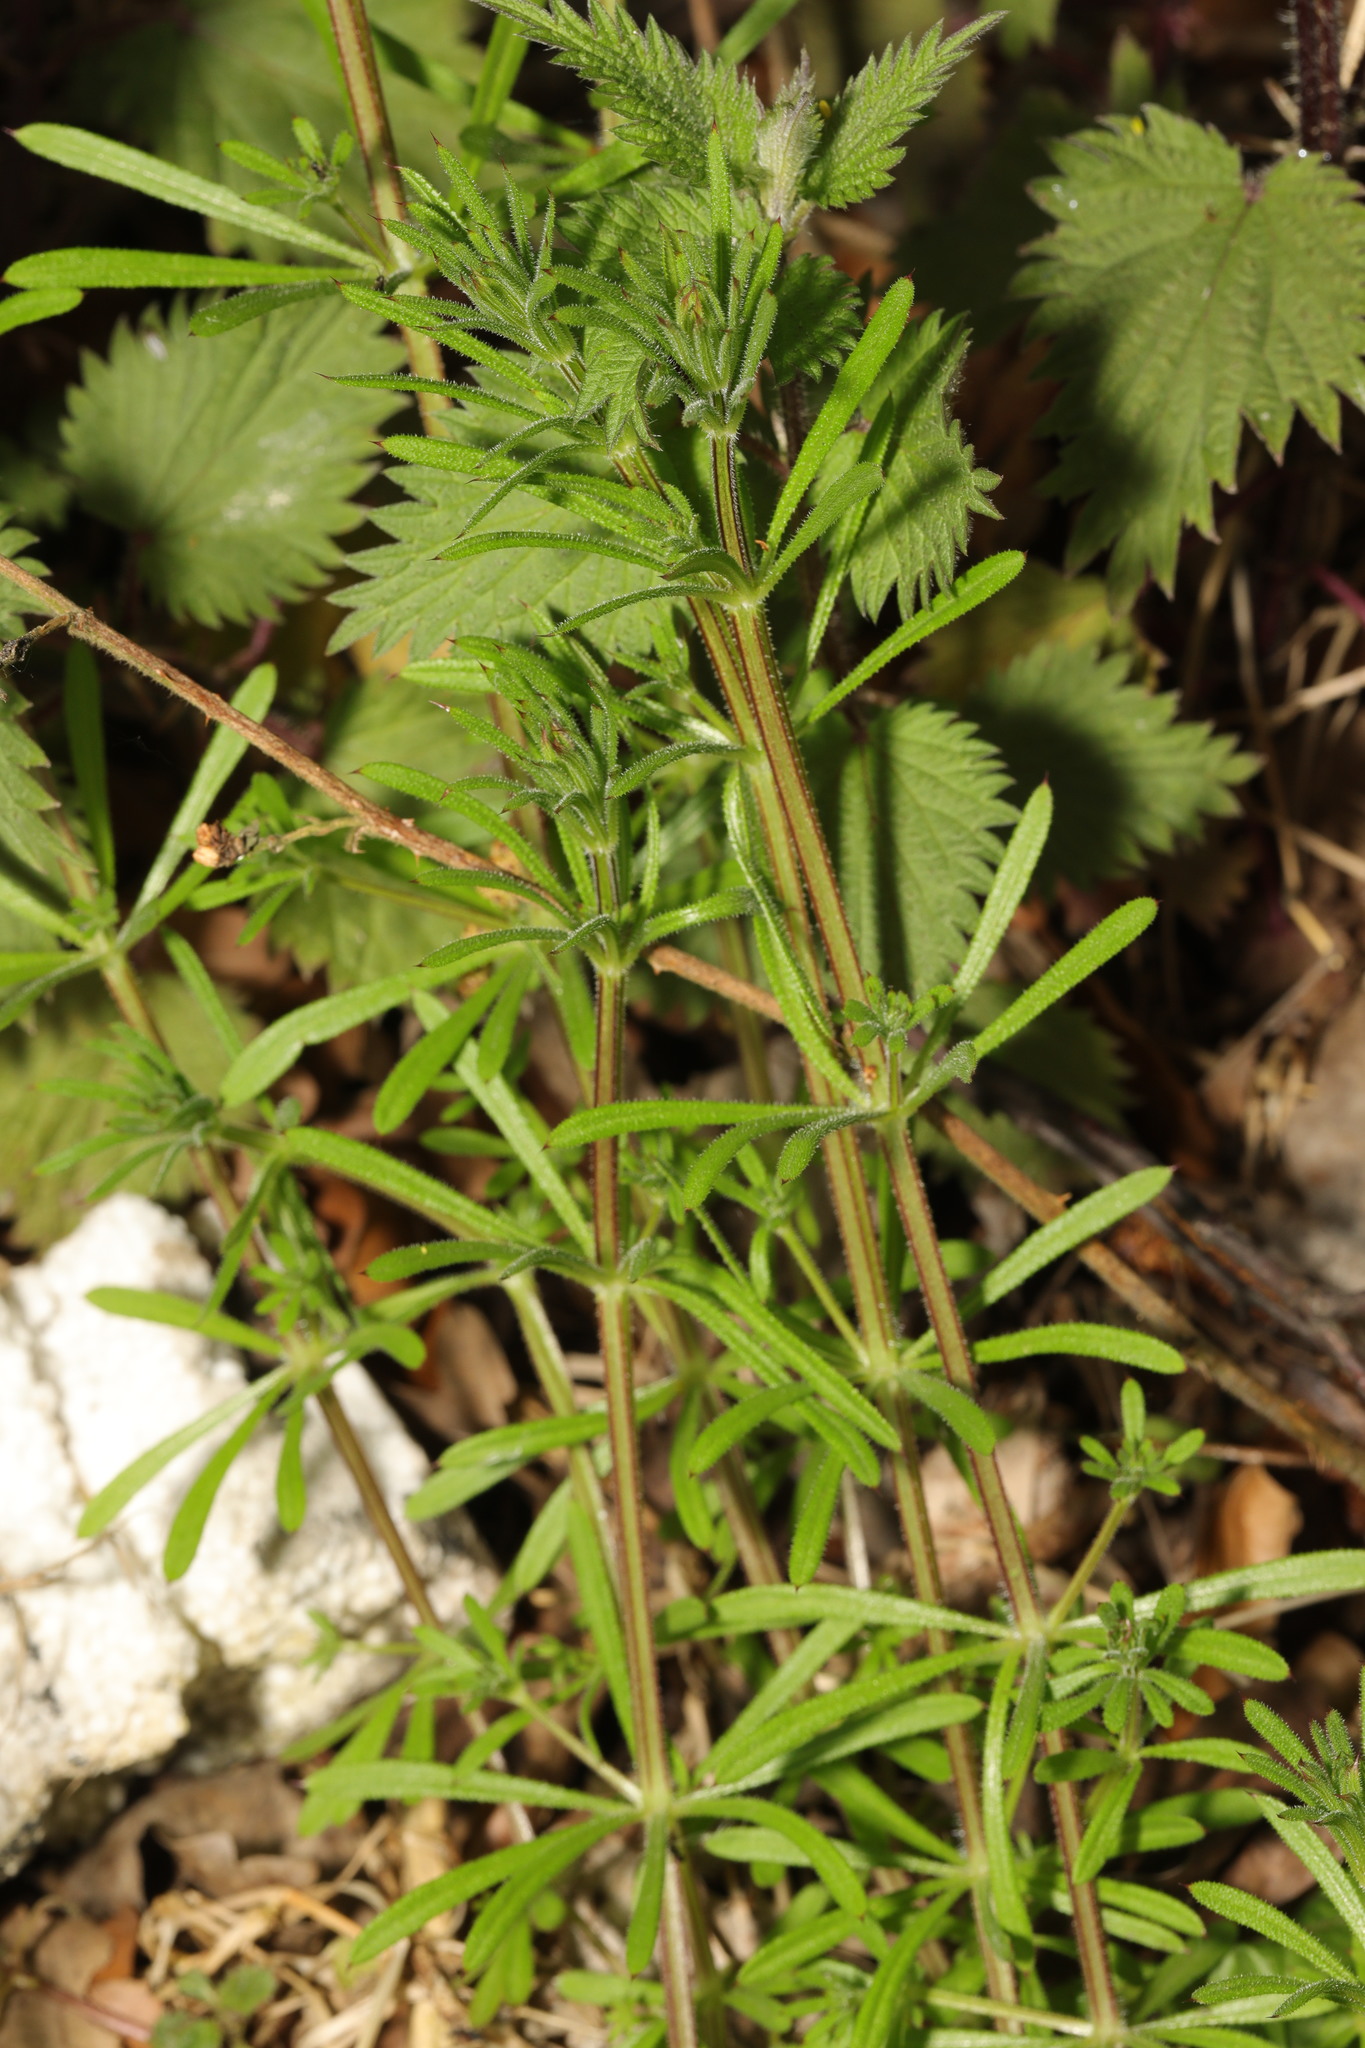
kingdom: Plantae
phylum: Tracheophyta
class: Magnoliopsida
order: Gentianales
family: Rubiaceae
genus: Galium
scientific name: Galium aparine
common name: Cleavers
